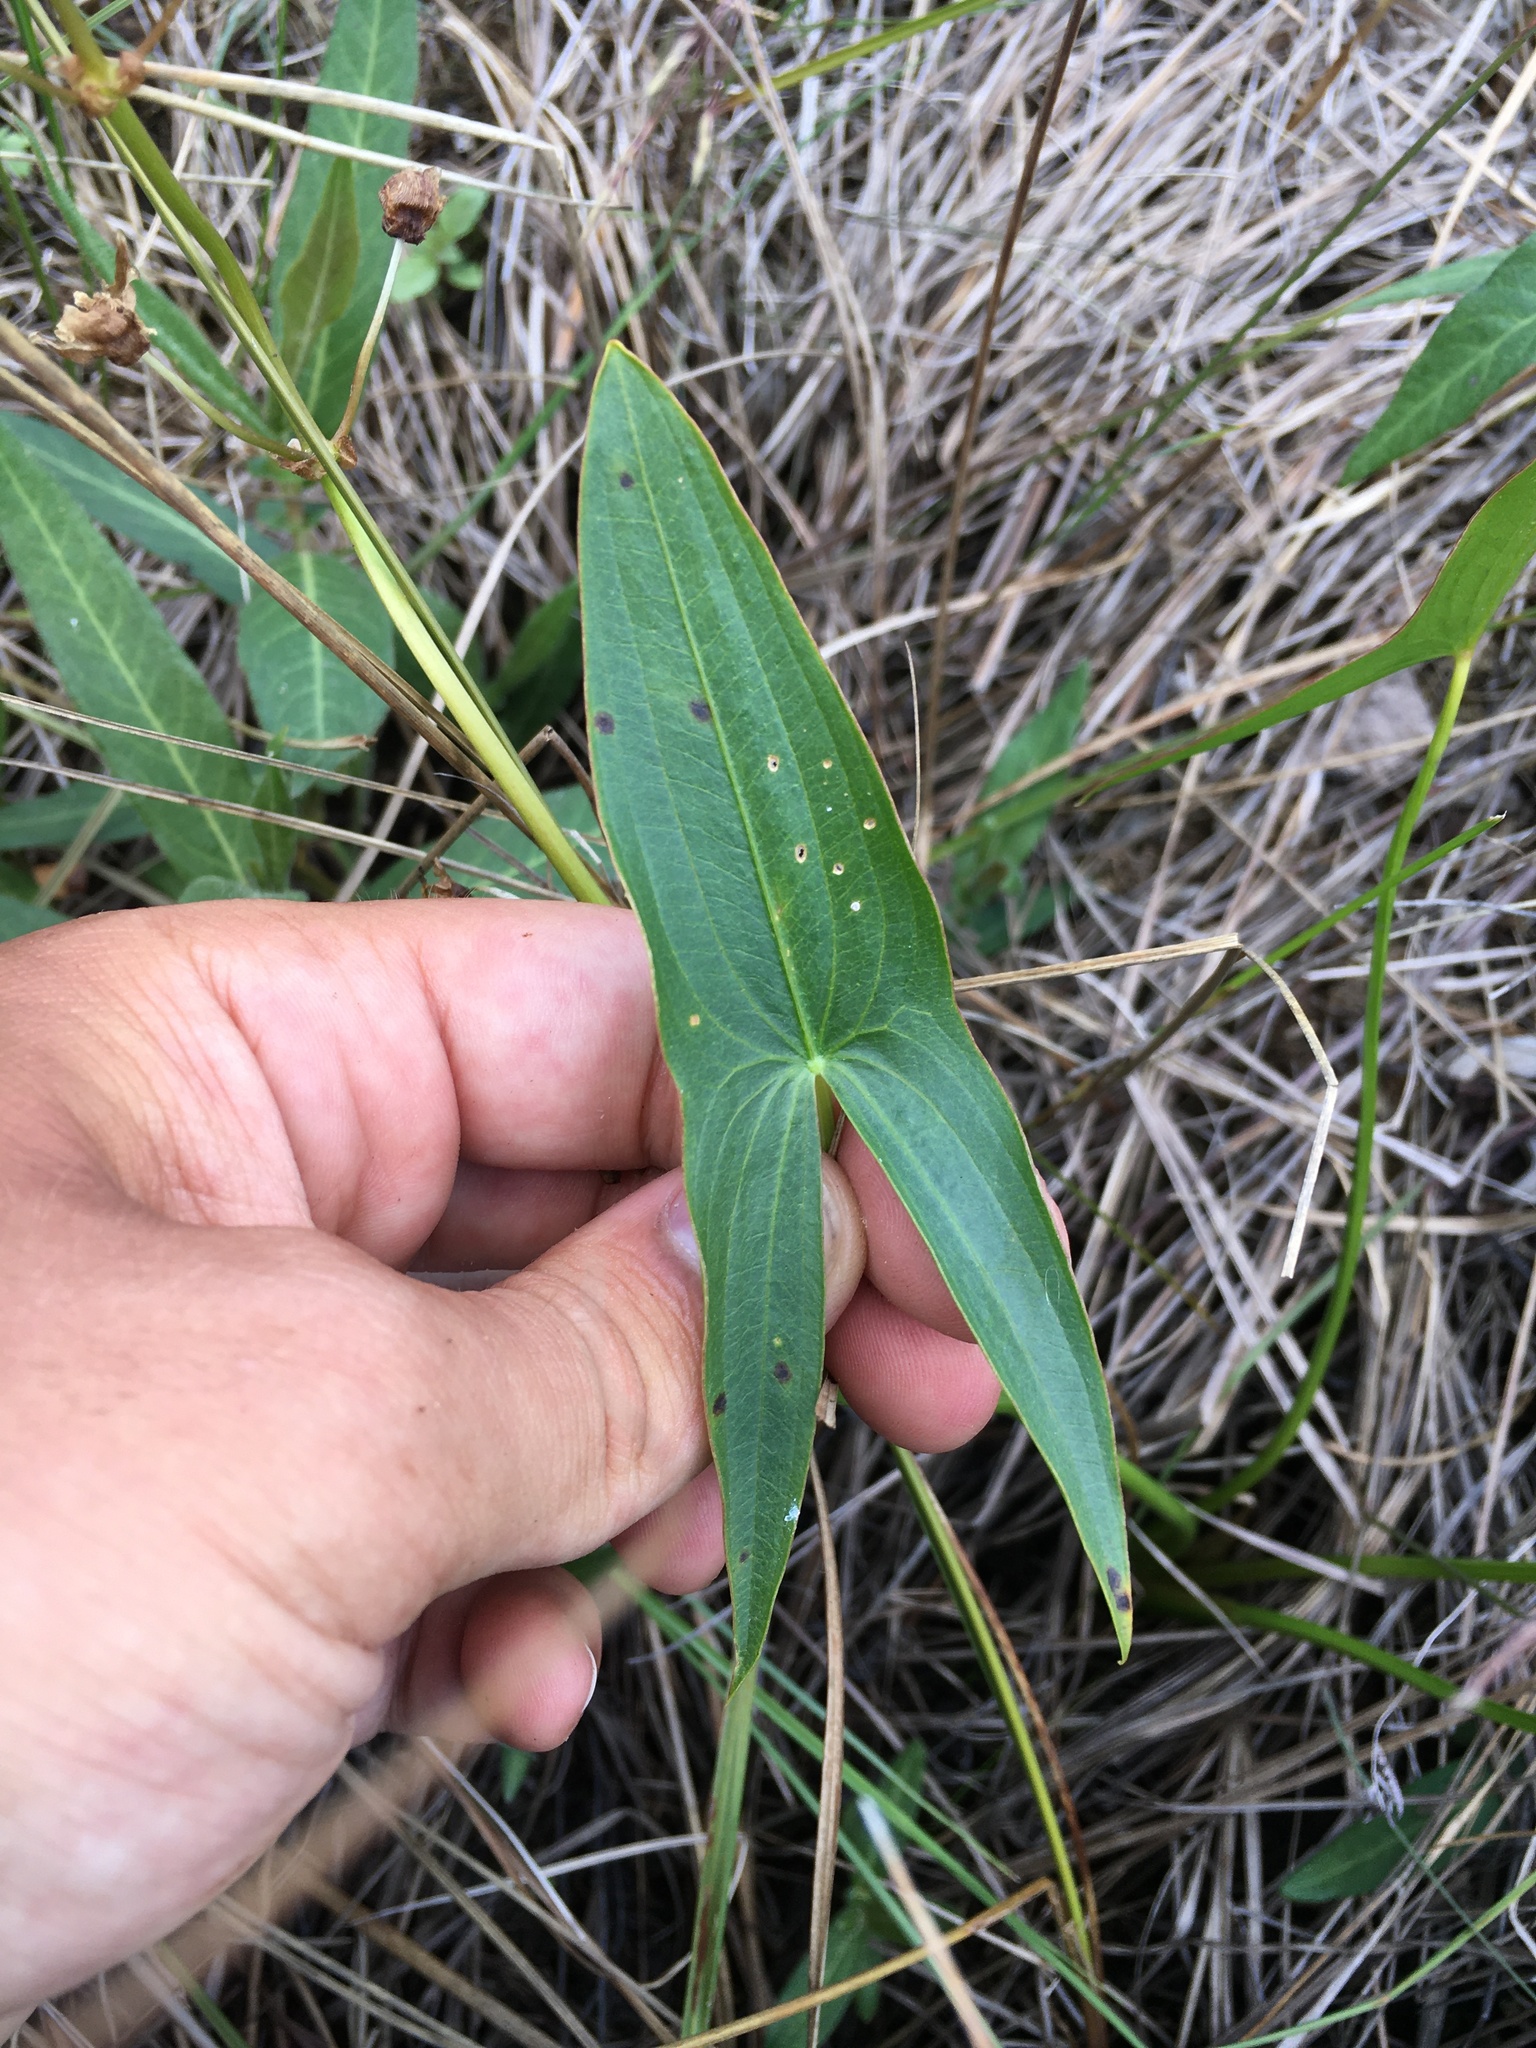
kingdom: Plantae
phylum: Tracheophyta
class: Liliopsida
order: Alismatales
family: Alismataceae
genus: Sagittaria
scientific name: Sagittaria latifolia
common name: Duck-potato
